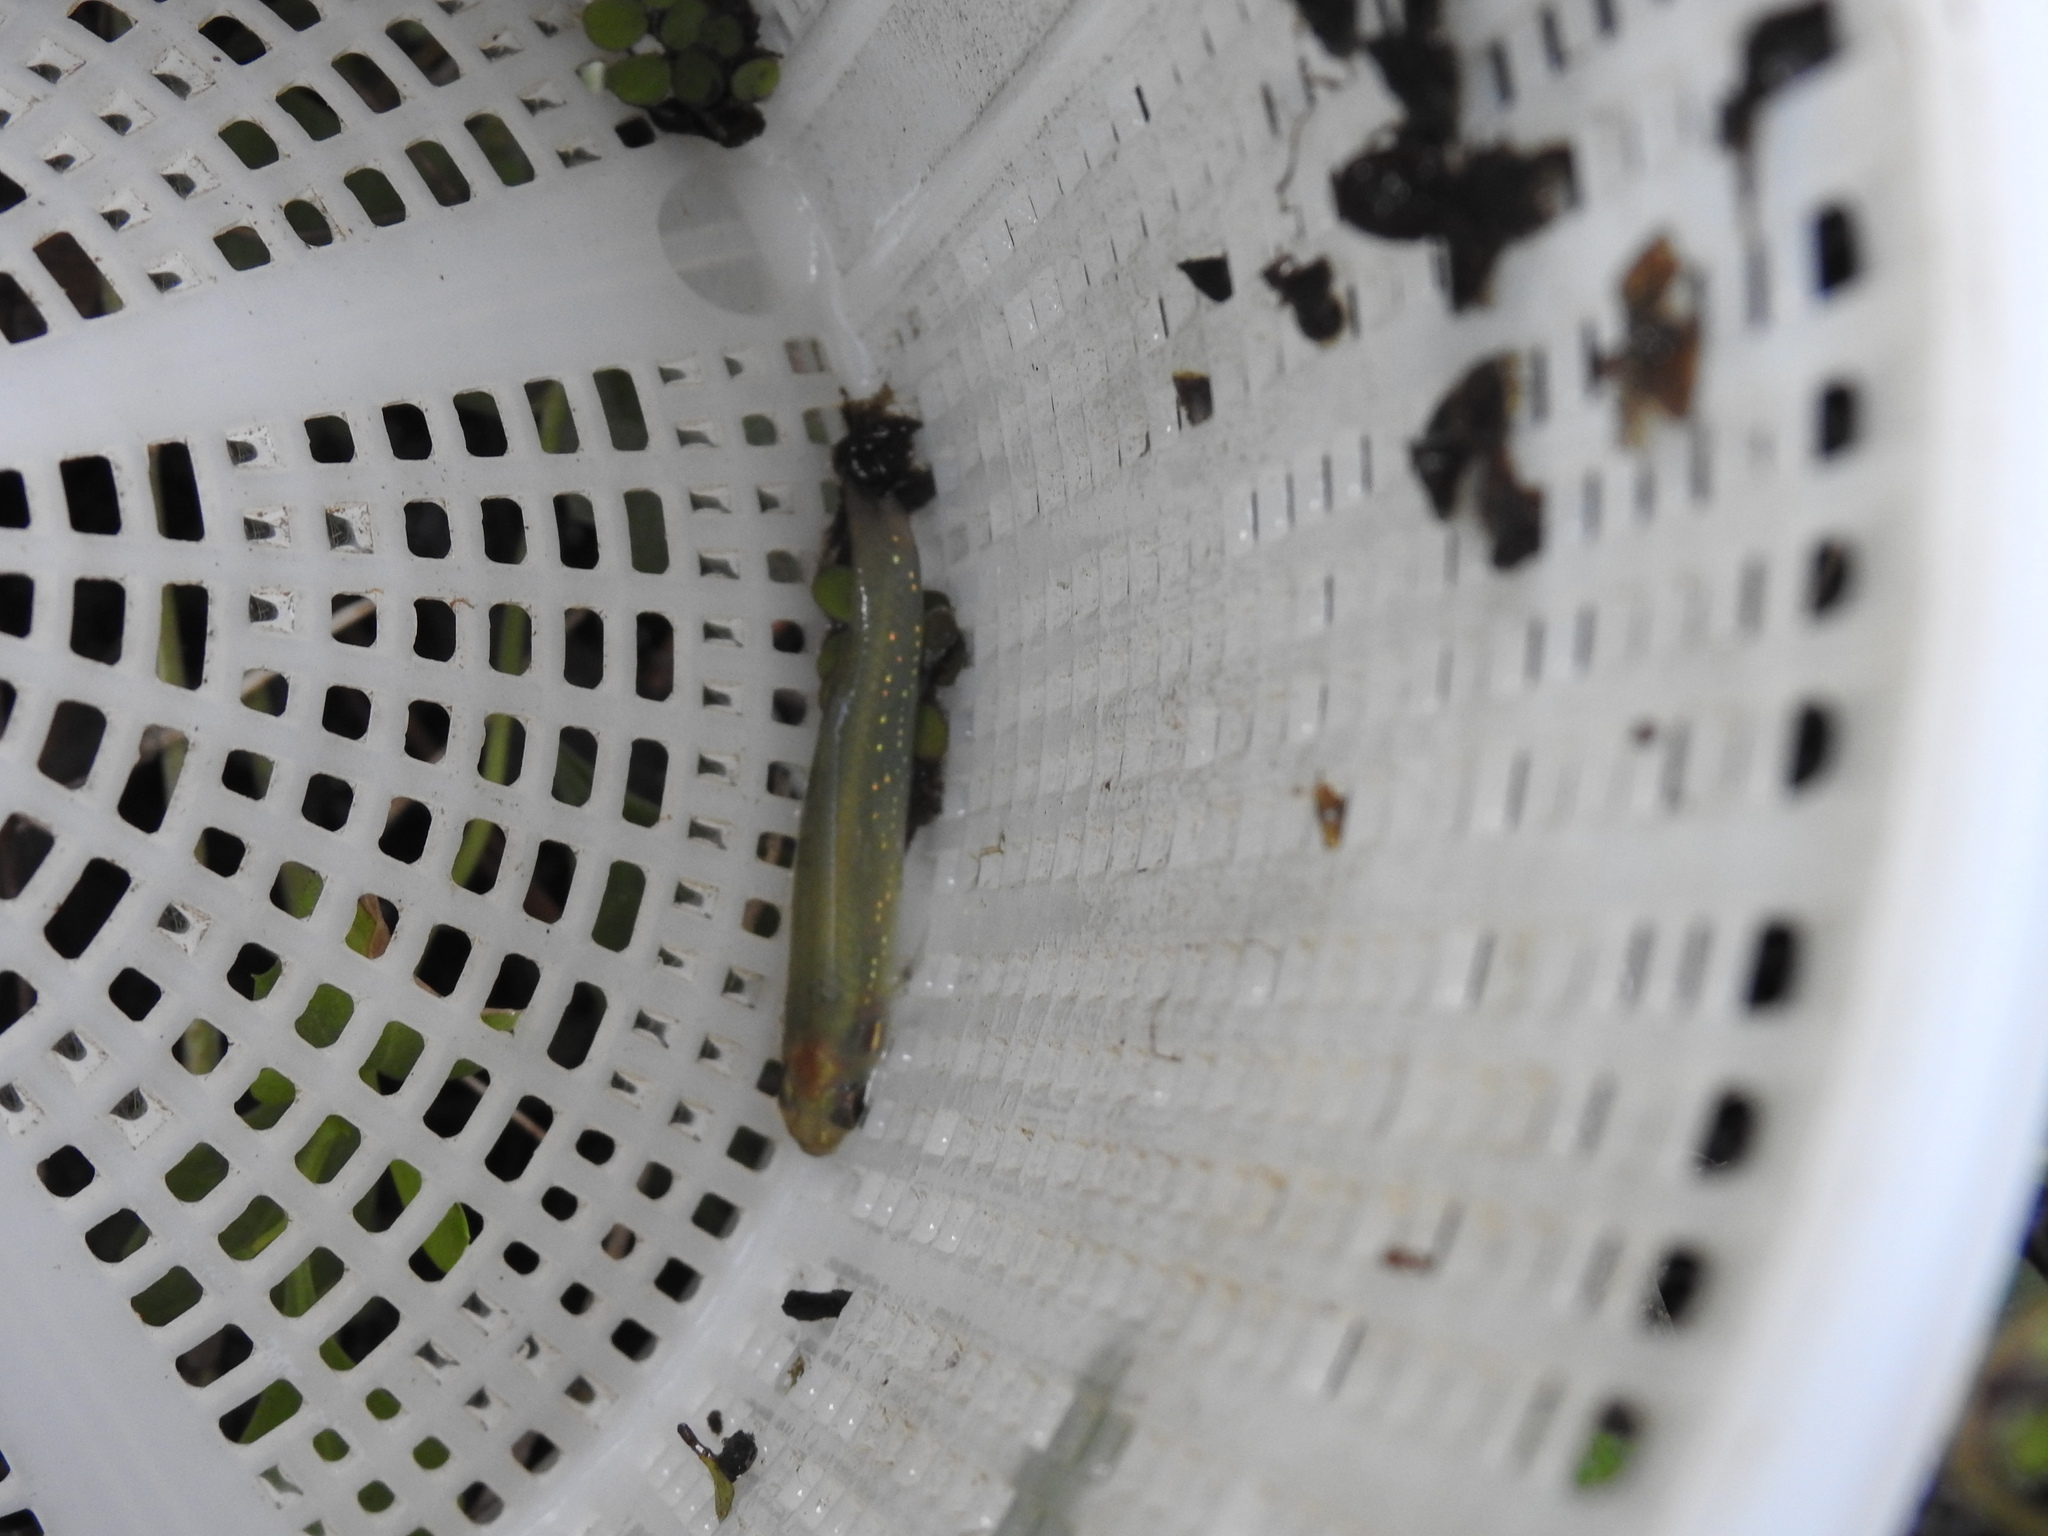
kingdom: Animalia
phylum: Chordata
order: Cyprinodontiformes
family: Fundulidae
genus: Fundulus
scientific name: Fundulus chrysotus
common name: Golden topminnow
